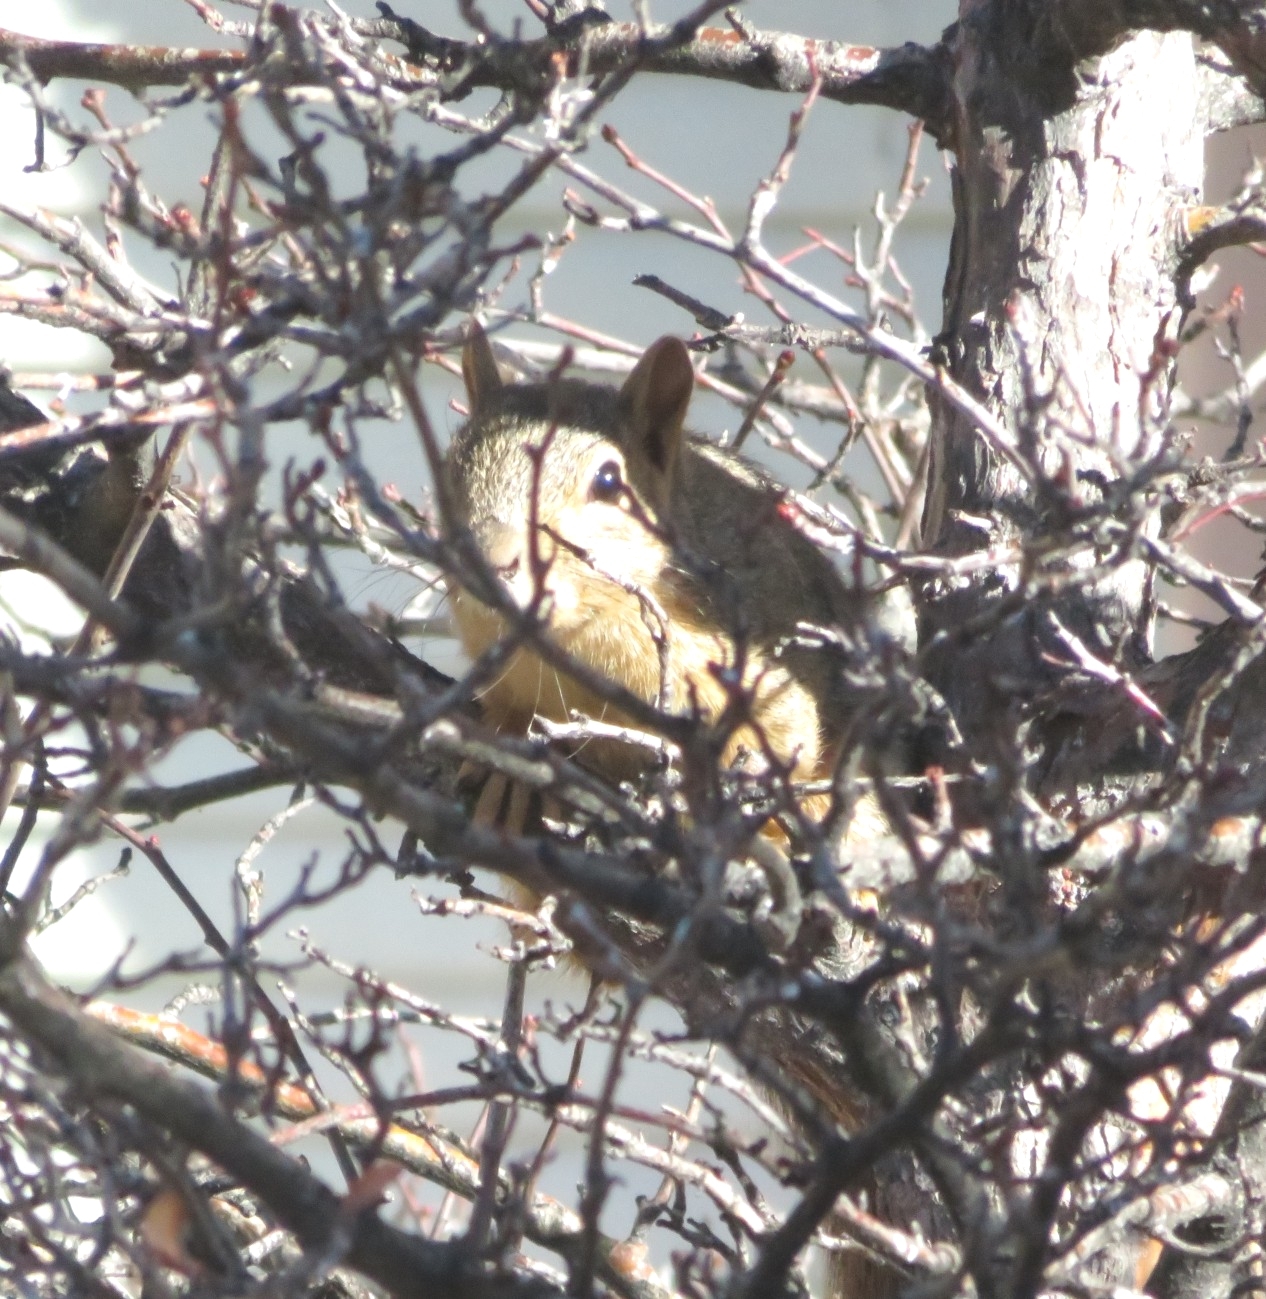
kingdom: Animalia
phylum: Chordata
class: Mammalia
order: Rodentia
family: Sciuridae
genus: Sciurus
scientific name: Sciurus niger
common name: Fox squirrel
